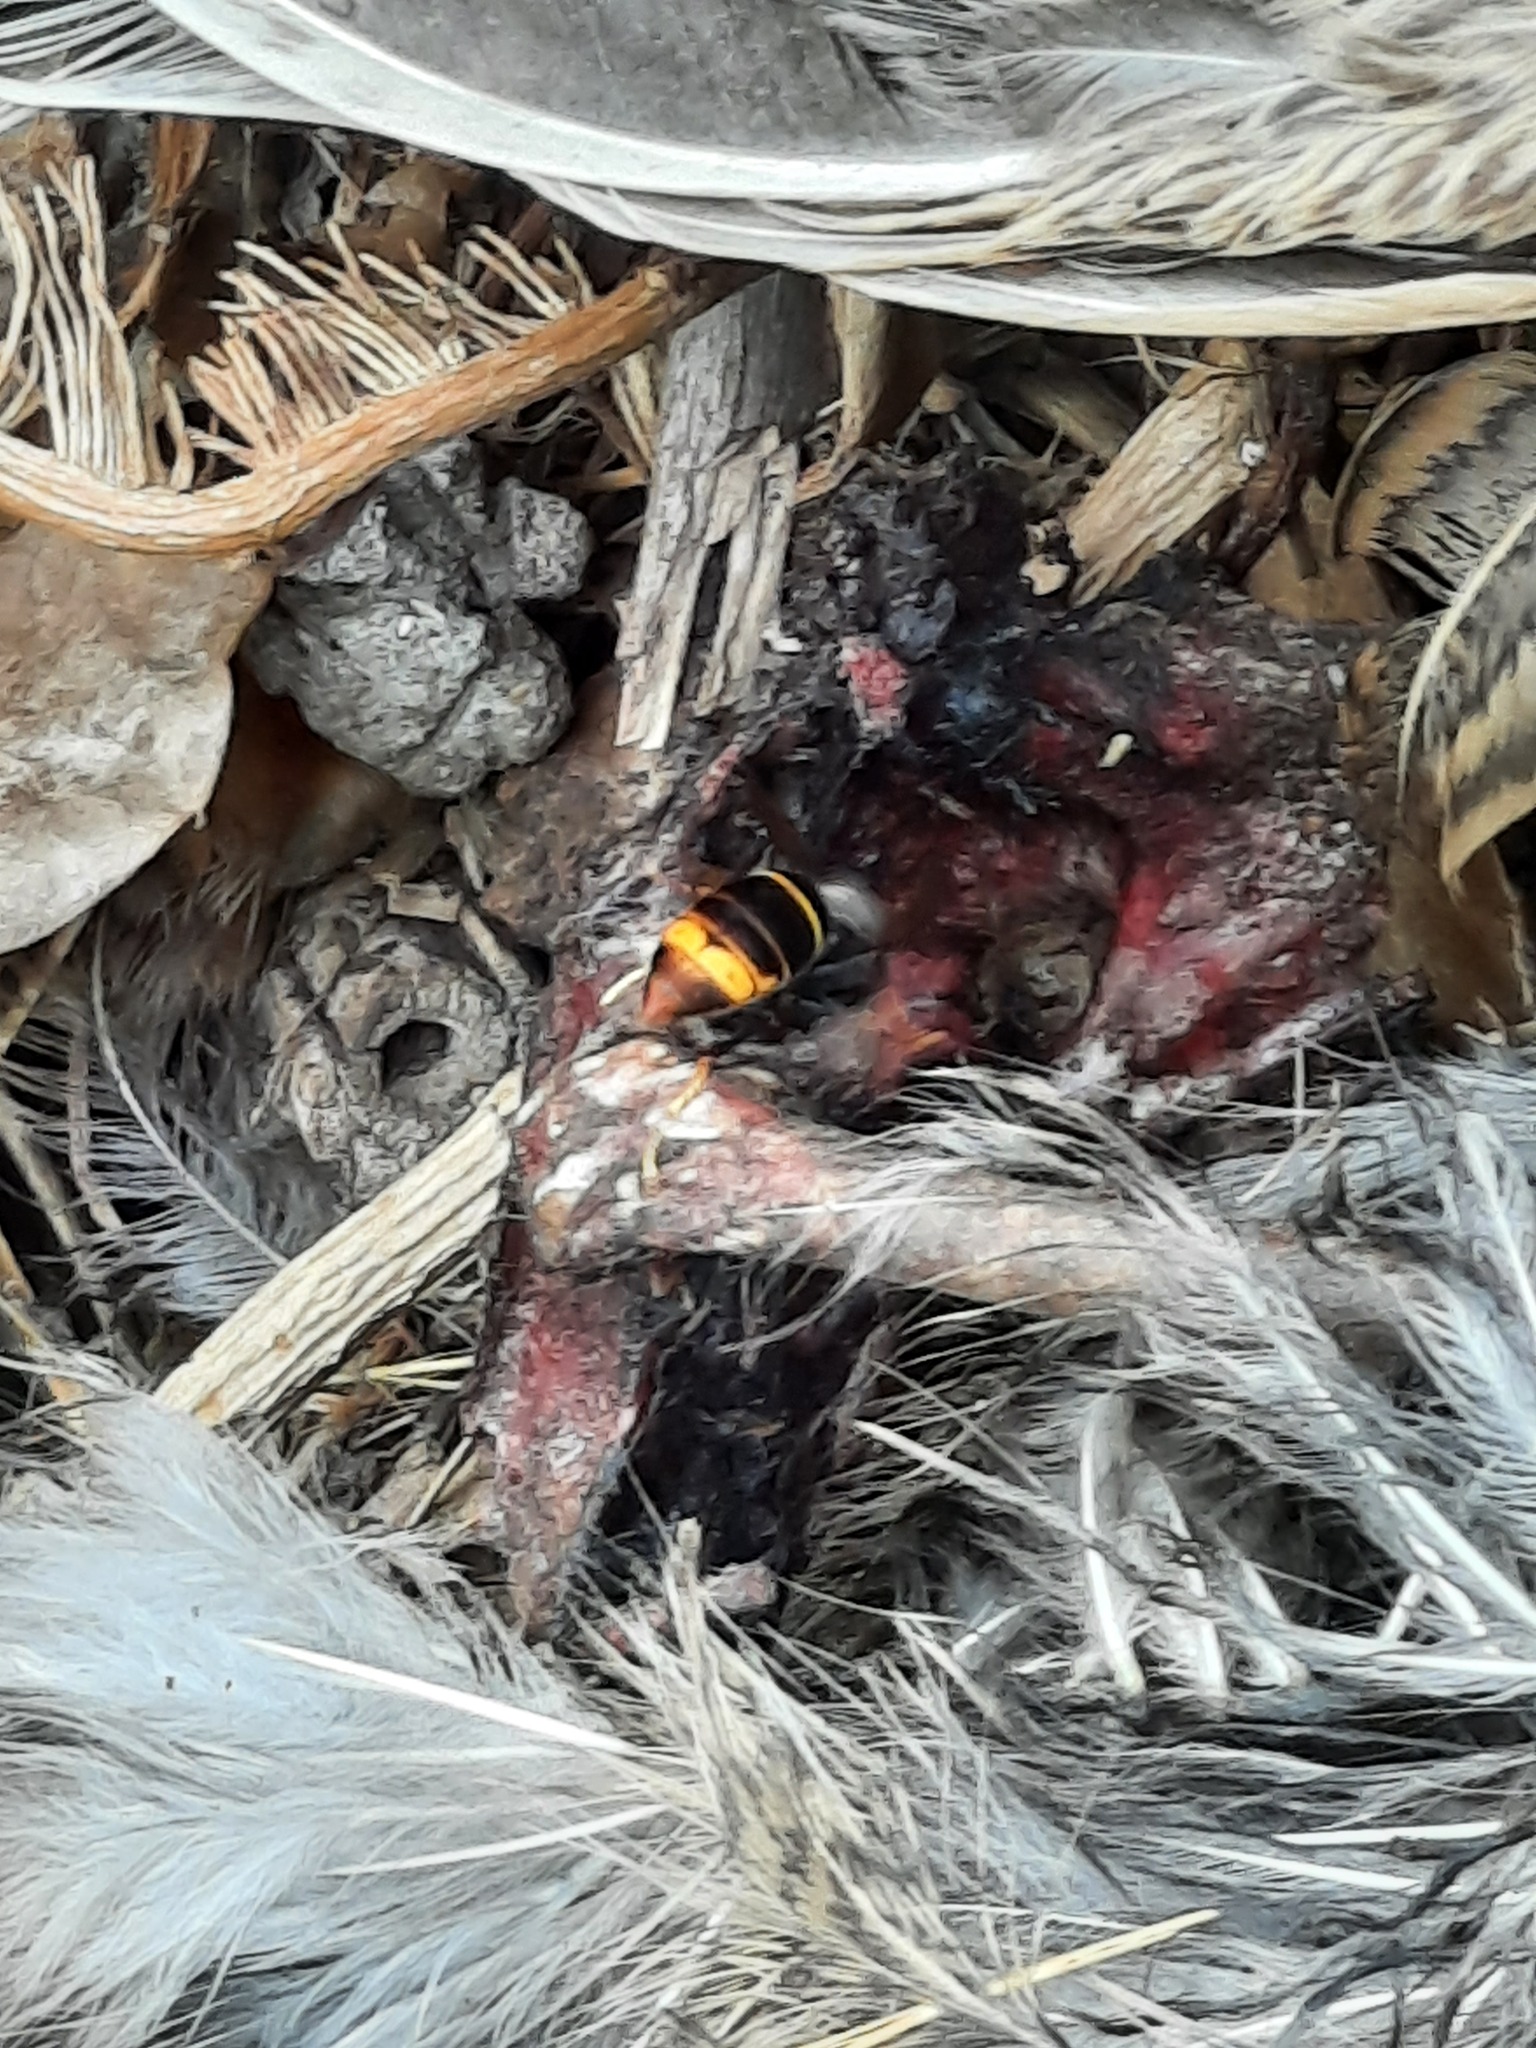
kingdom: Animalia
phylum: Arthropoda
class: Insecta
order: Hymenoptera
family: Vespidae
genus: Vespa
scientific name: Vespa velutina
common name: Asian hornet
